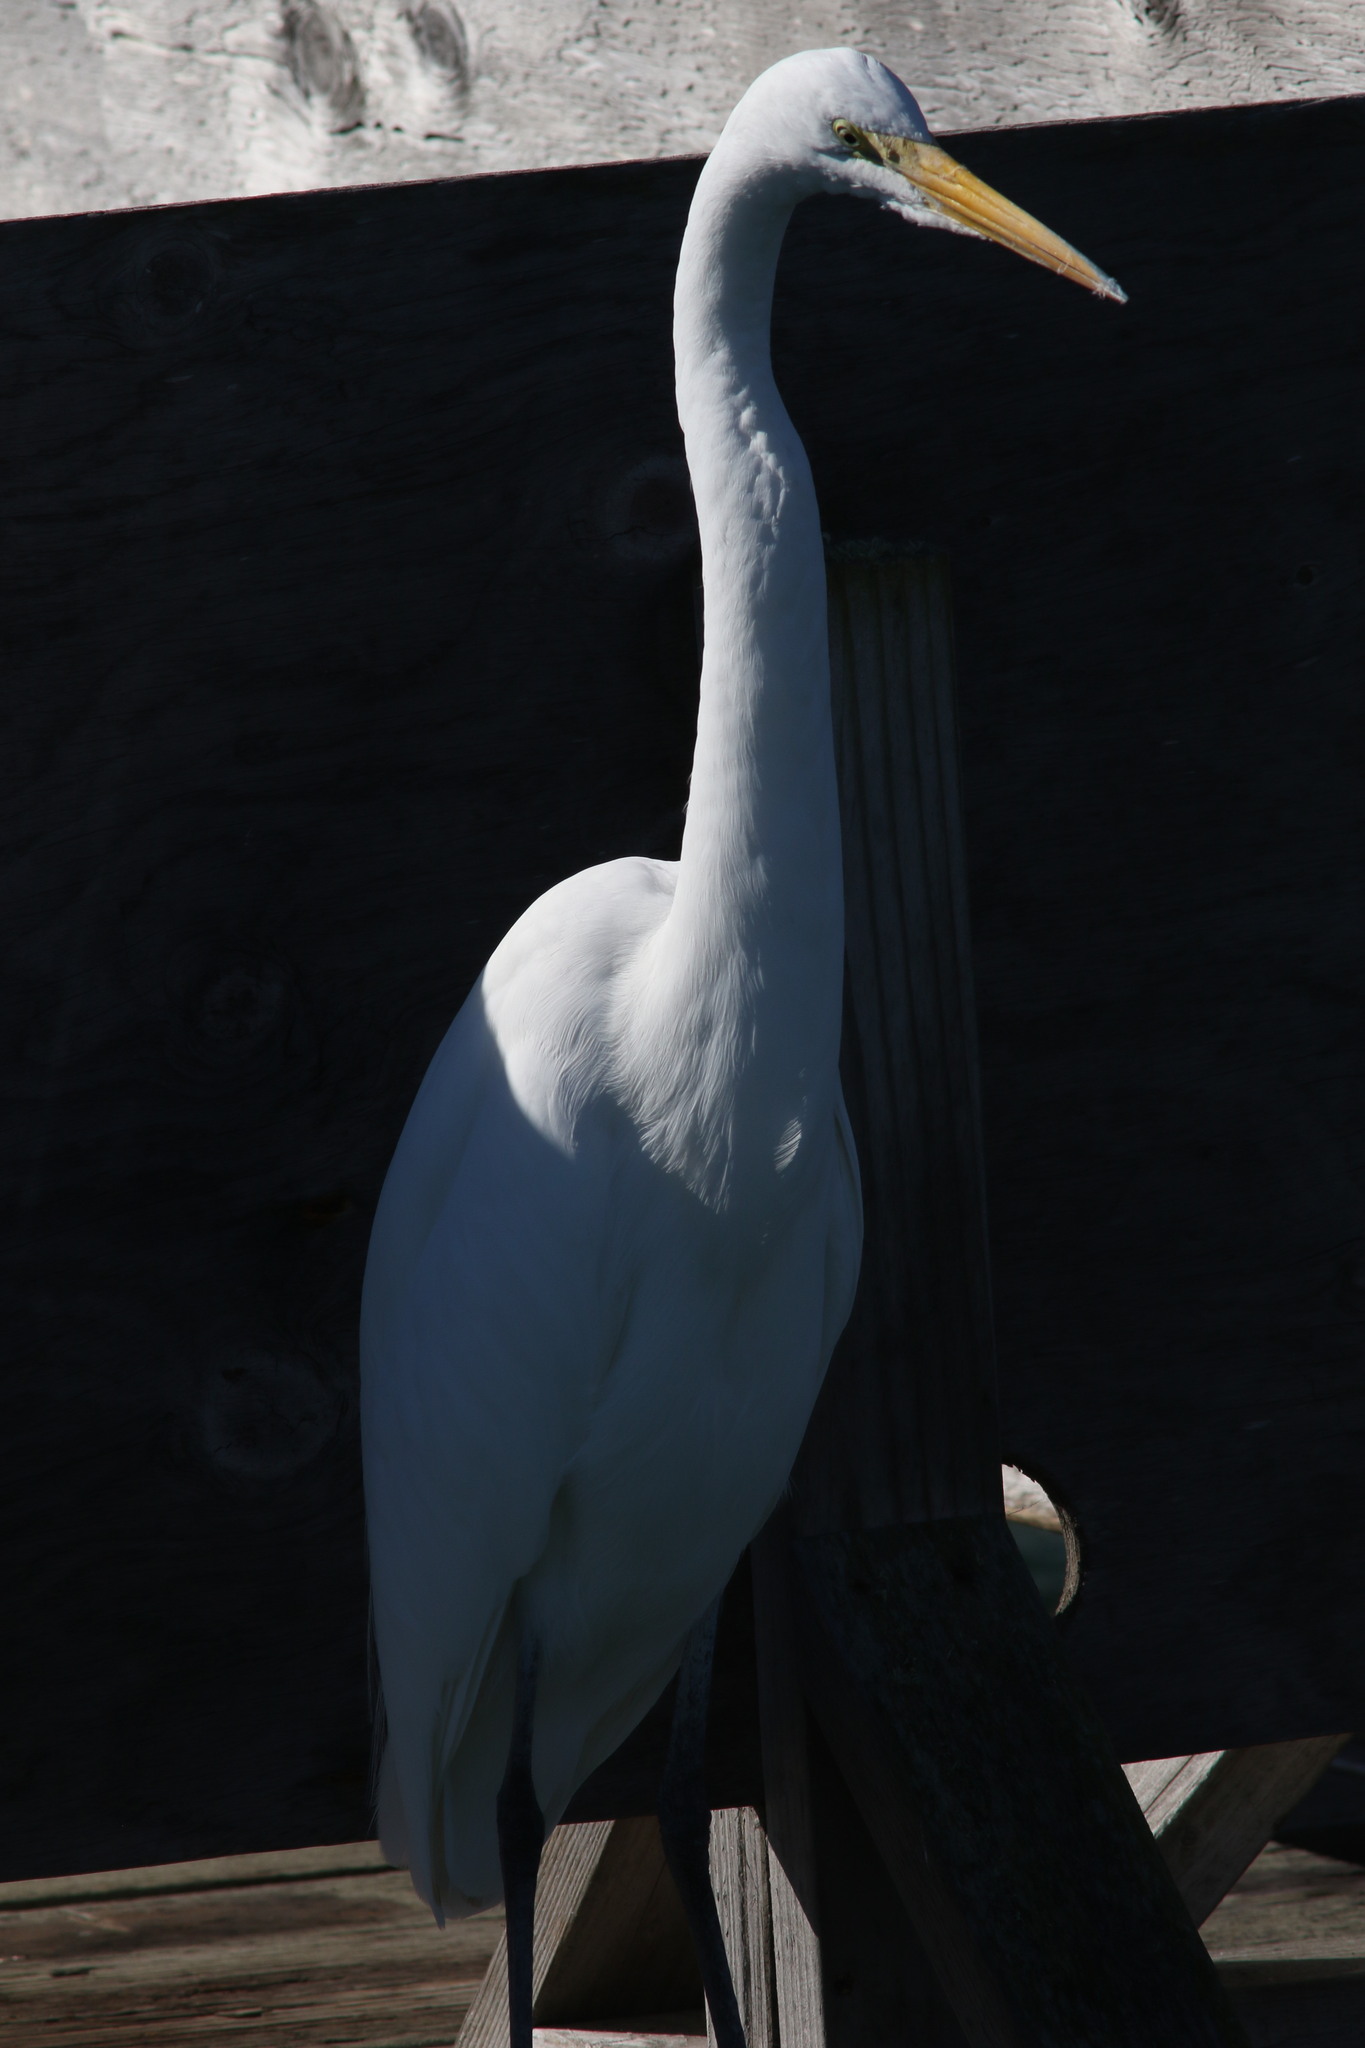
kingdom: Animalia
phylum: Chordata
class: Aves
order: Pelecaniformes
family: Ardeidae
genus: Ardea
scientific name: Ardea alba
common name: Great egret
